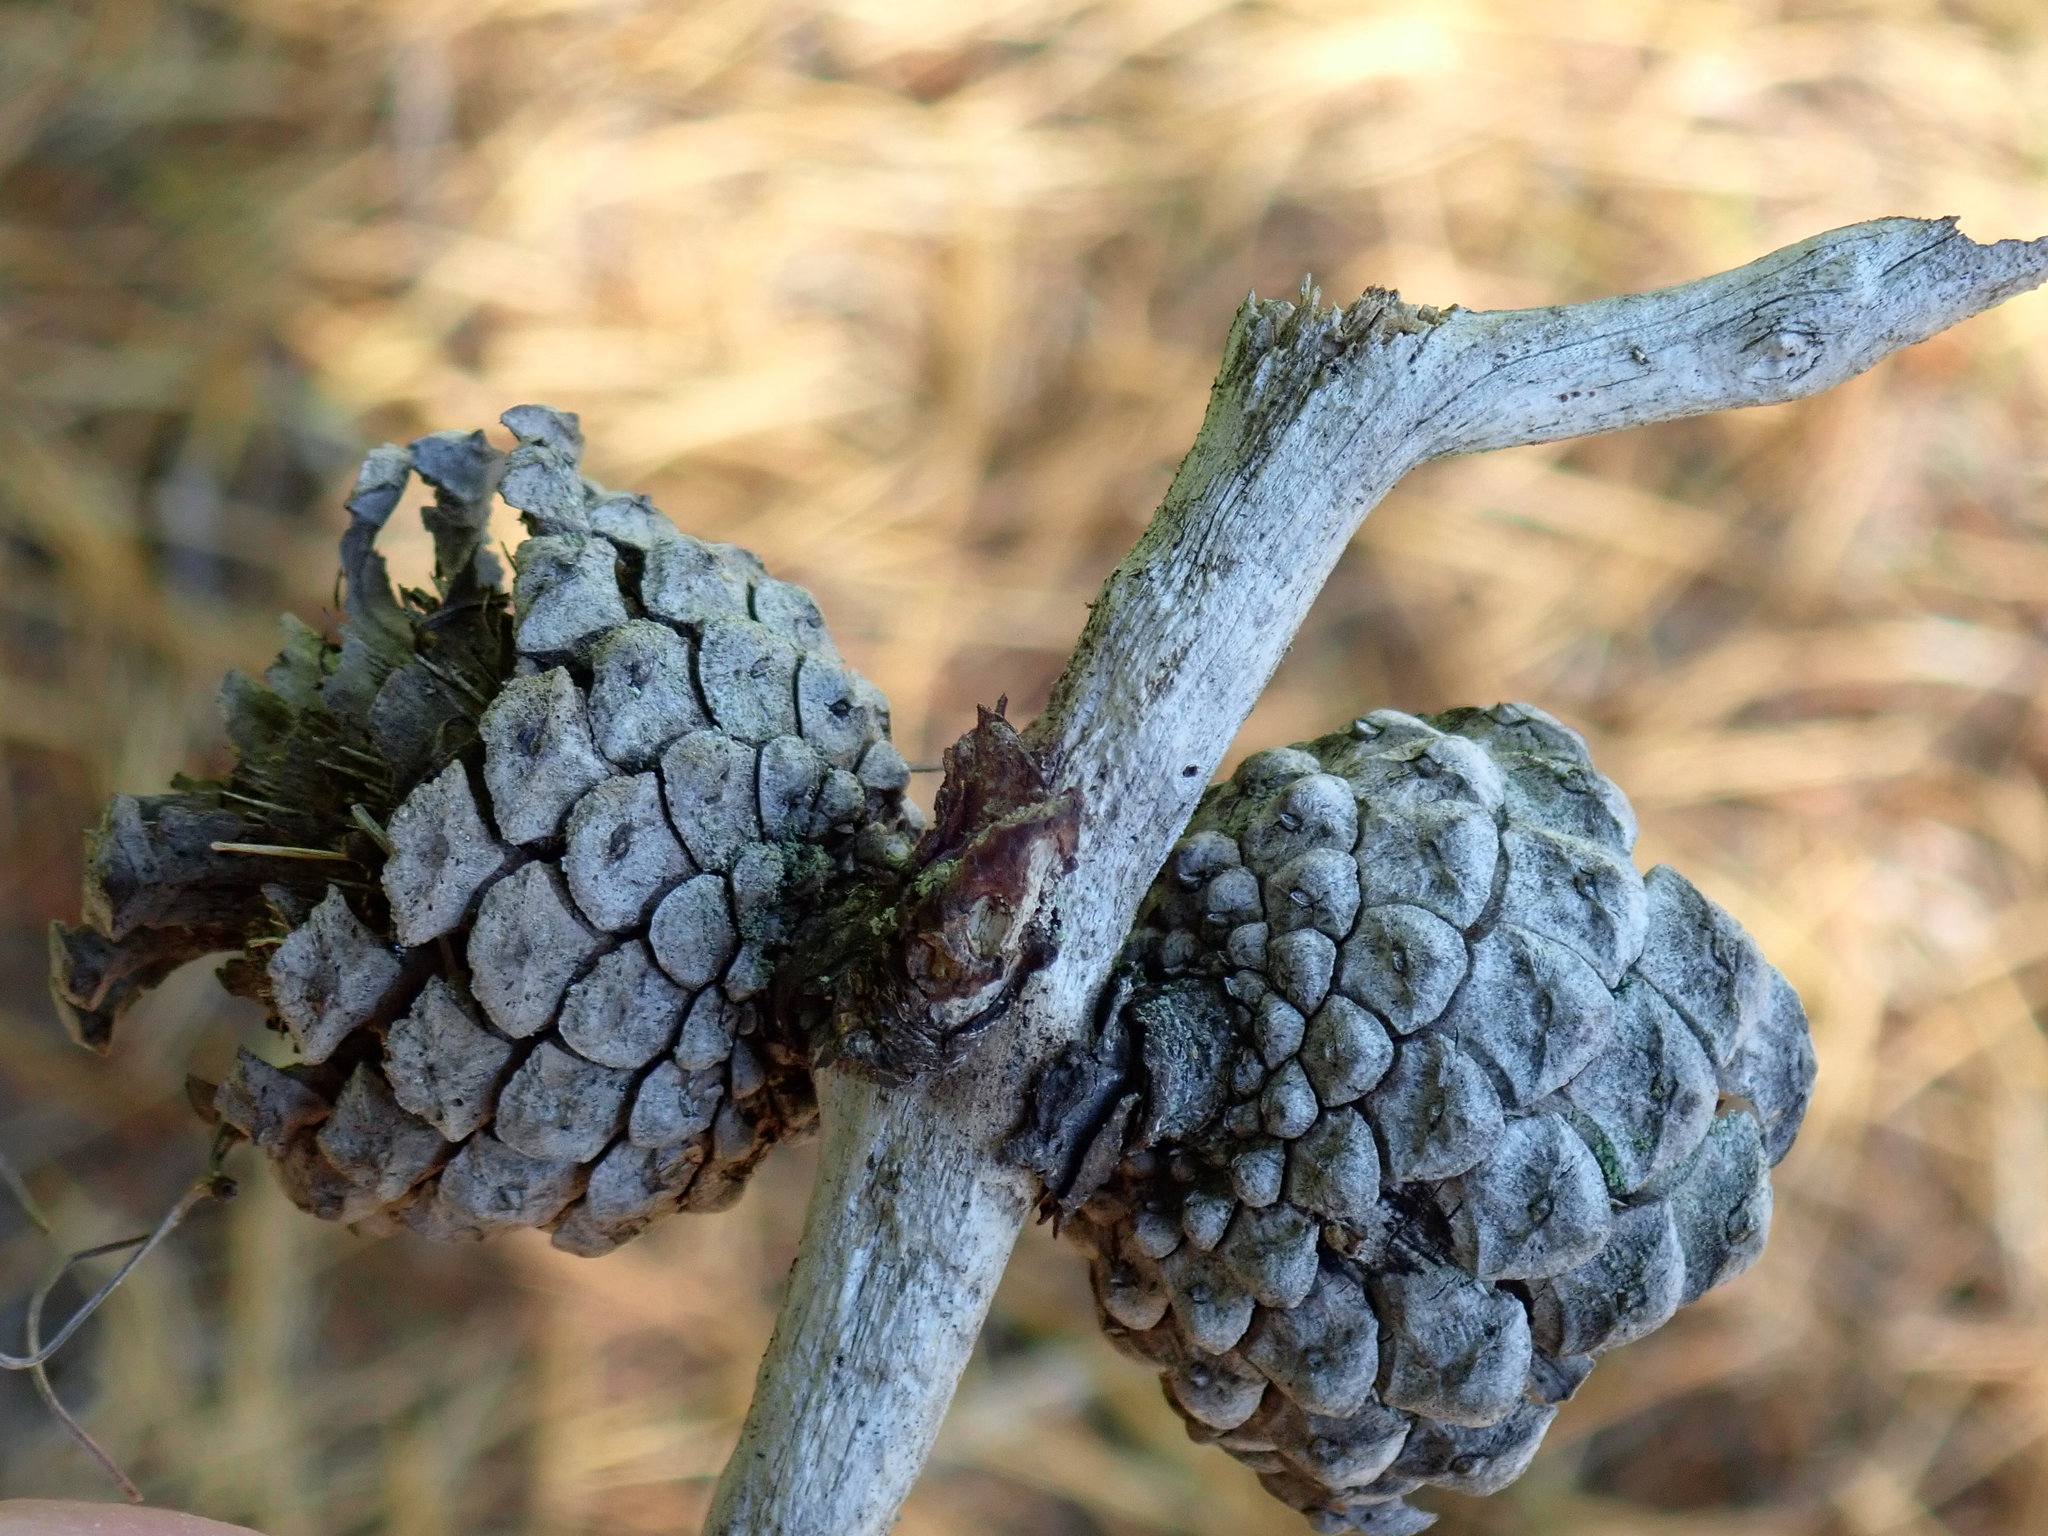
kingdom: Plantae
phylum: Tracheophyta
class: Pinopsida
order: Pinales
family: Pinaceae
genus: Pinus
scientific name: Pinus rigida
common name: Pitch pine
